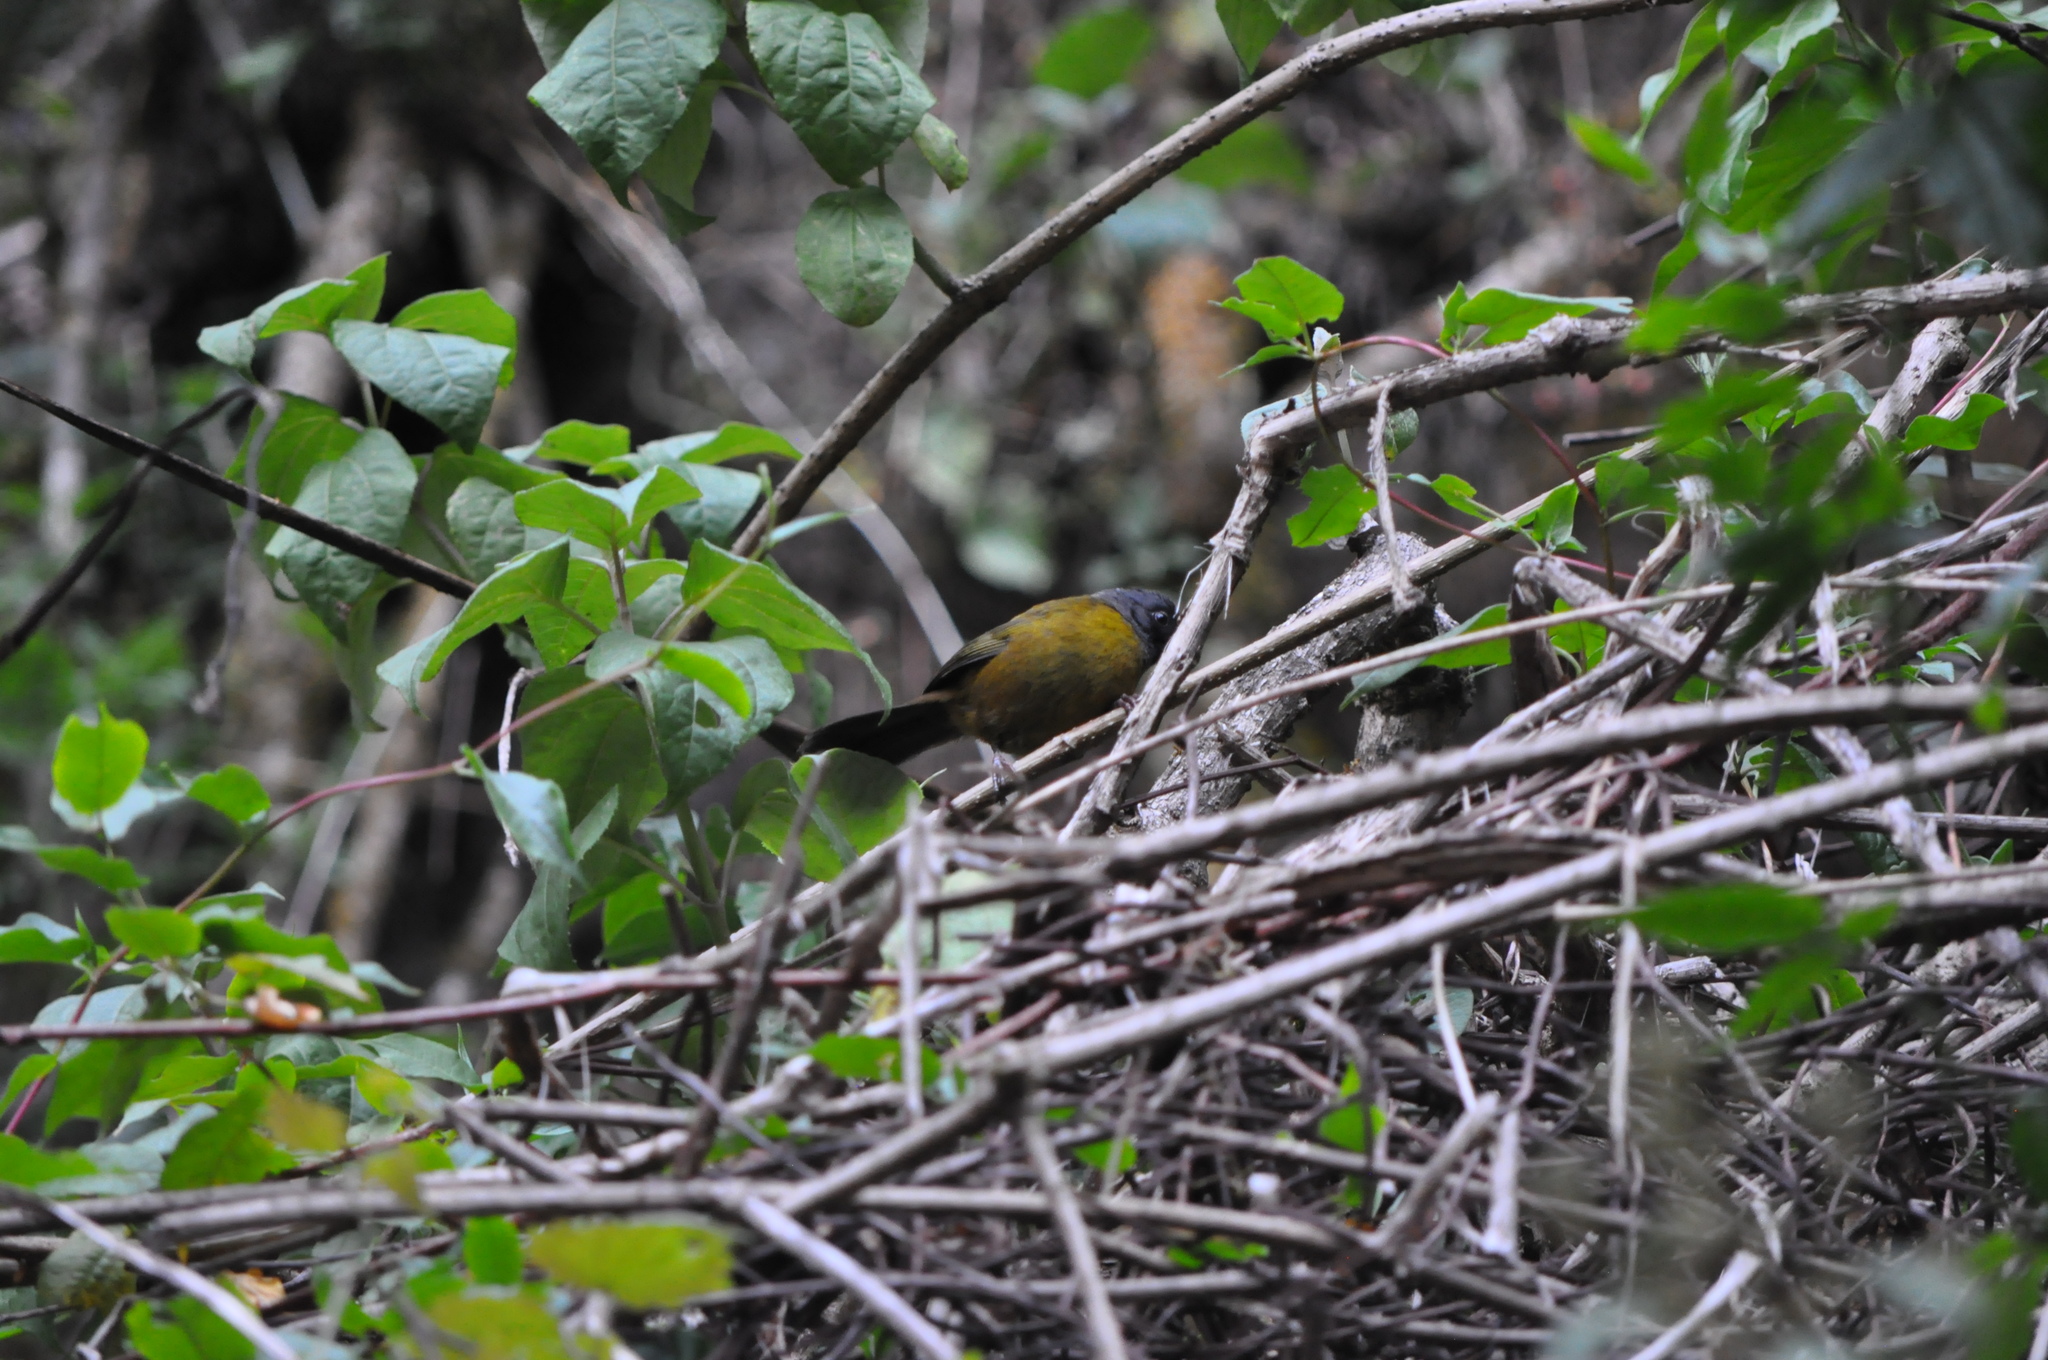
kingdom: Animalia
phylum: Chordata
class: Aves
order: Passeriformes
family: Passerellidae
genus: Pezopetes
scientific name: Pezopetes capitalis
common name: Large-footed finch
